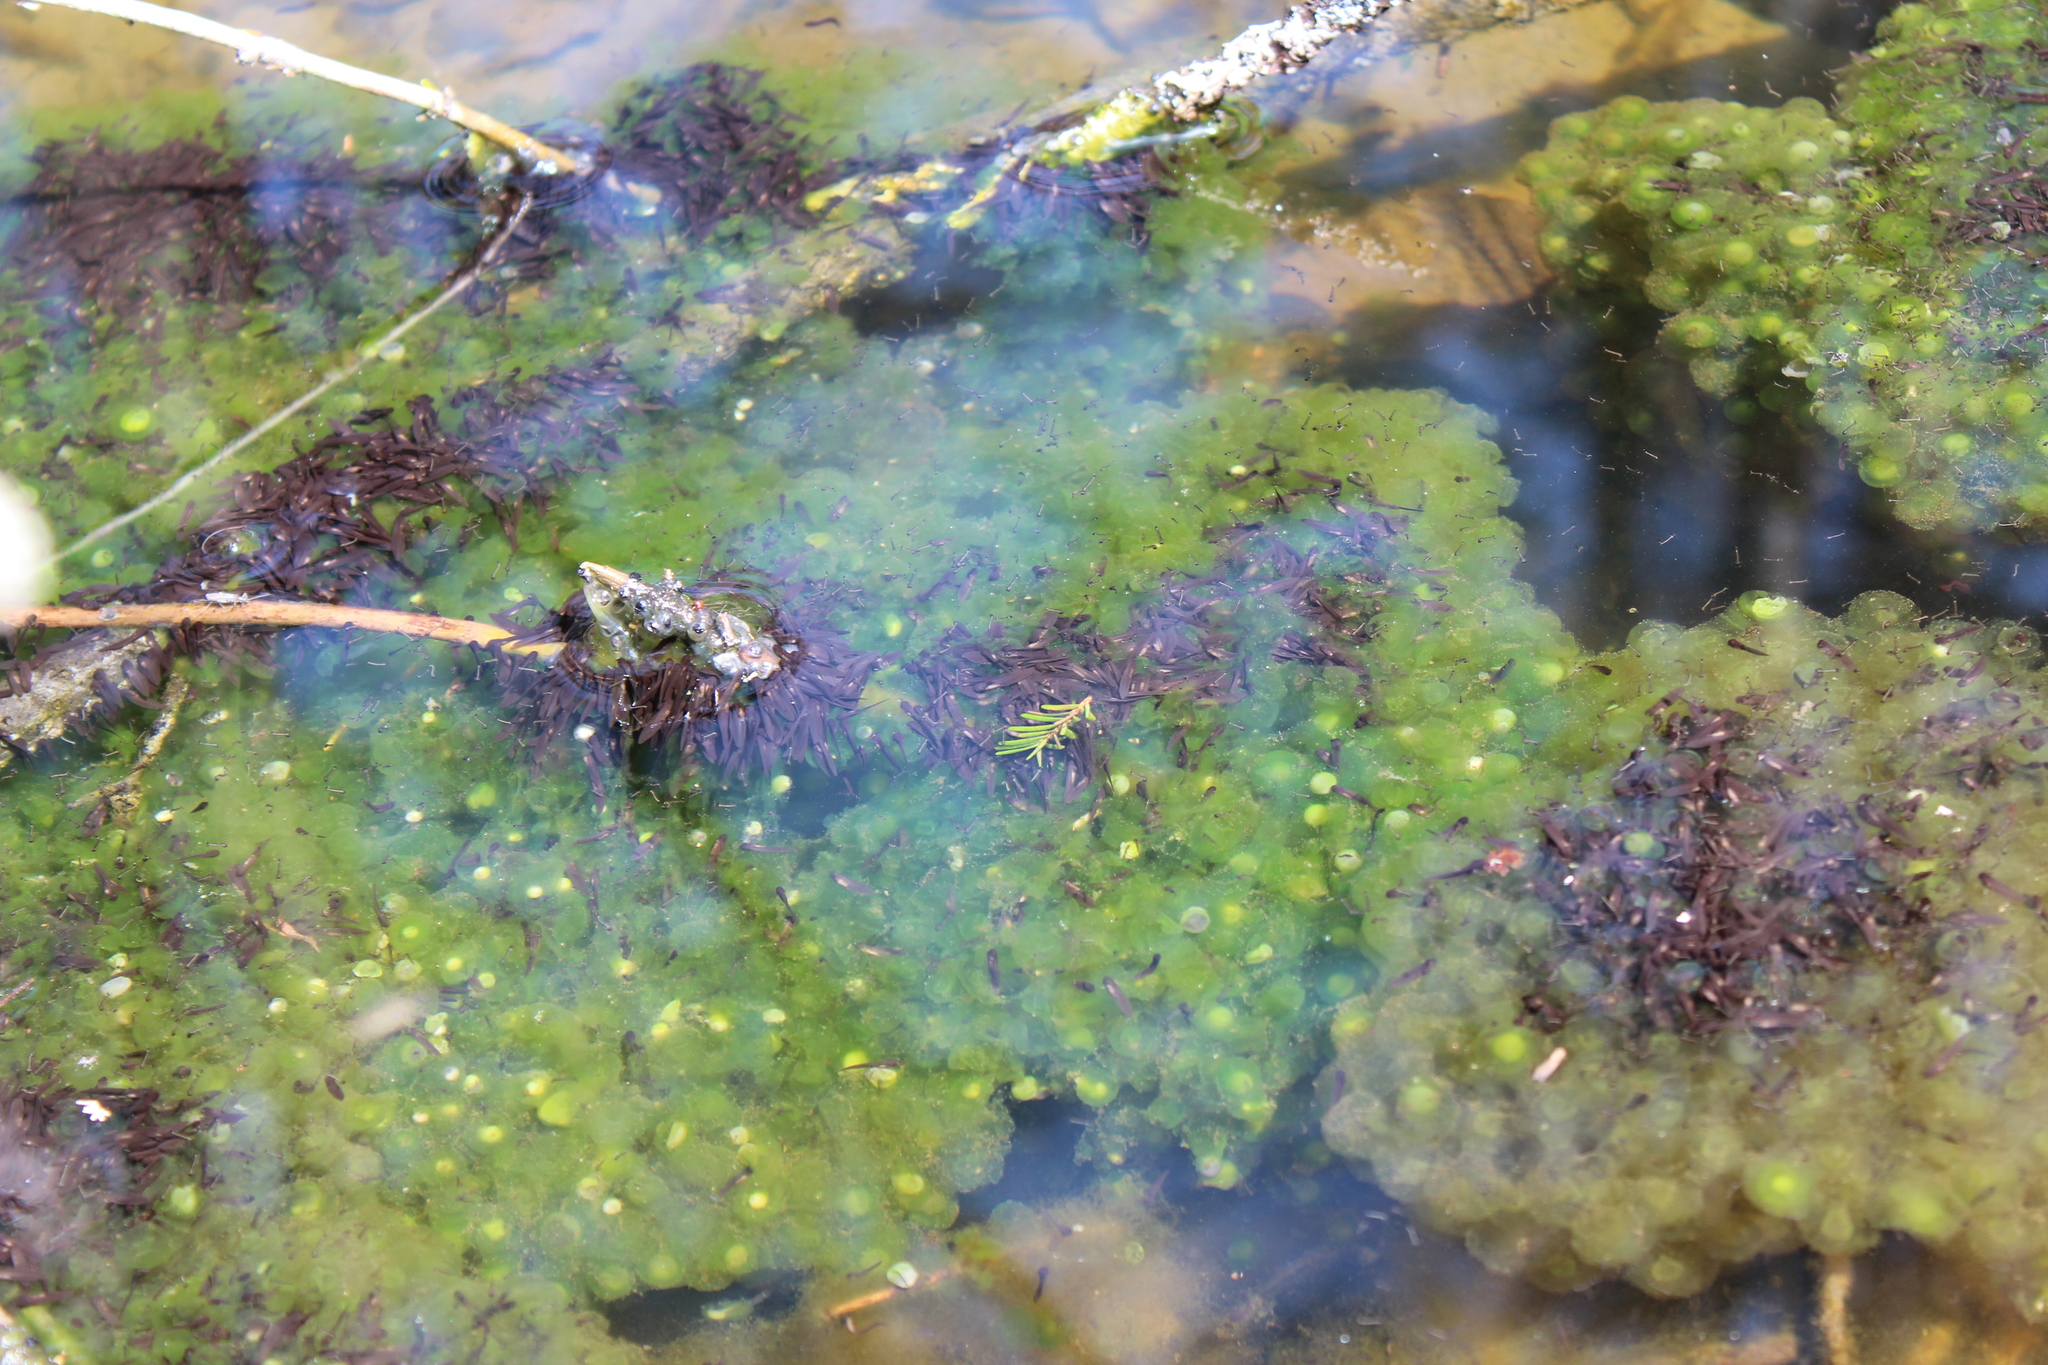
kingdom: Animalia
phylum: Chordata
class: Amphibia
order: Anura
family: Ranidae
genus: Lithobates
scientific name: Lithobates sylvaticus
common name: Wood frog
